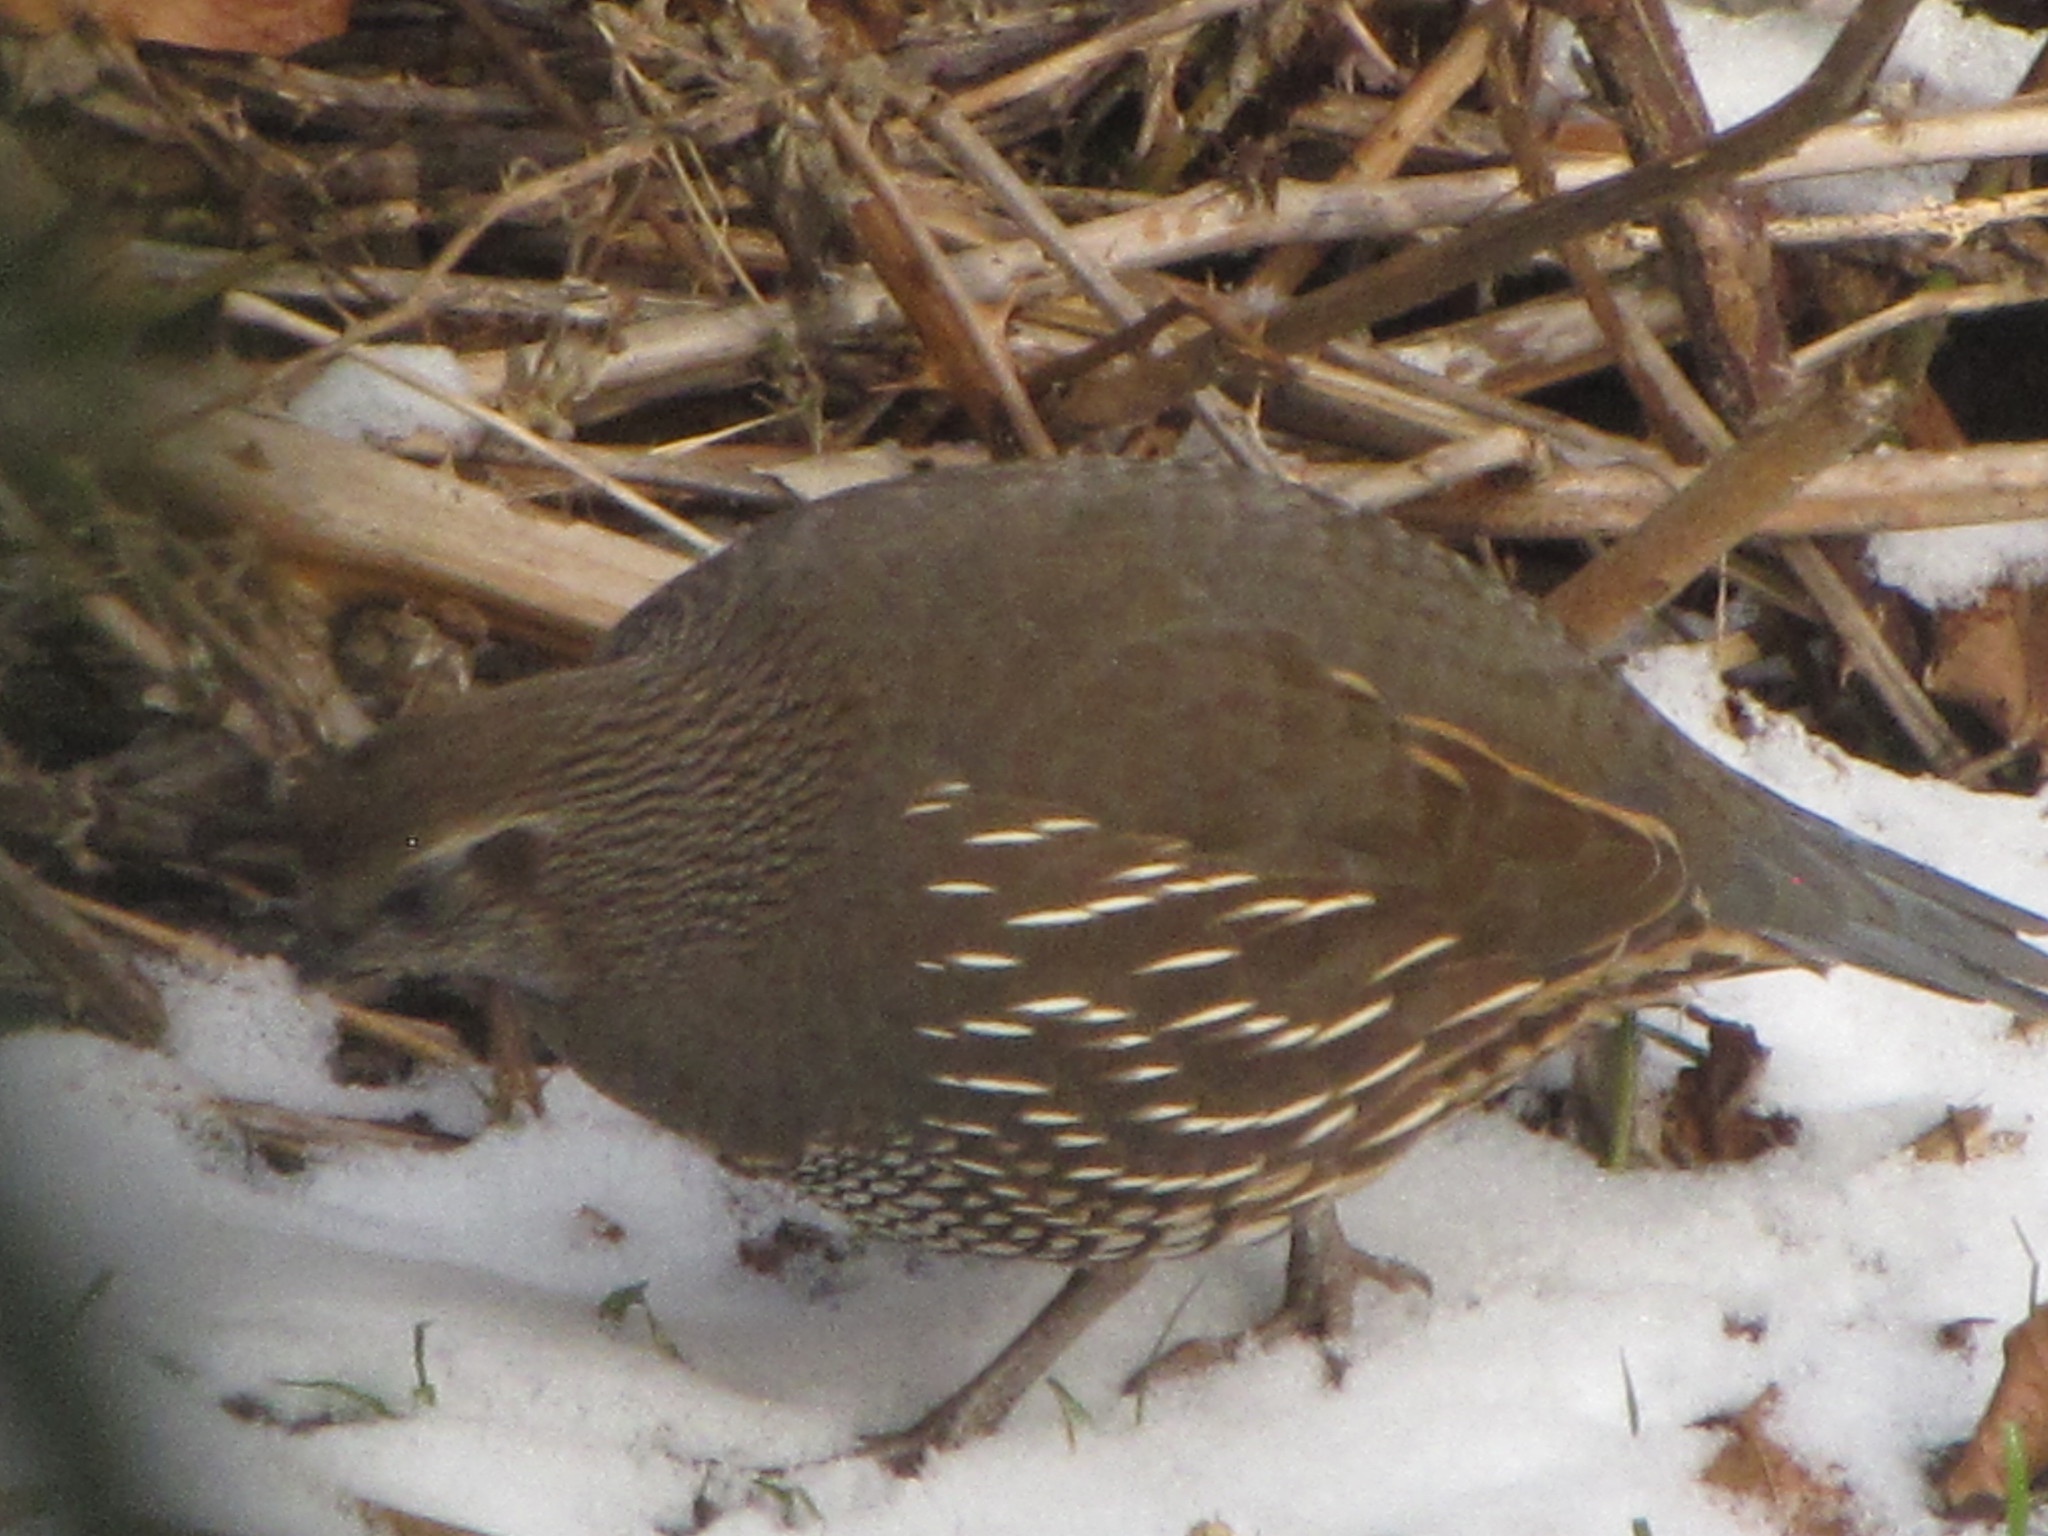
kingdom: Animalia
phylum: Chordata
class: Aves
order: Galliformes
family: Odontophoridae
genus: Callipepla
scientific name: Callipepla californica
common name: California quail
